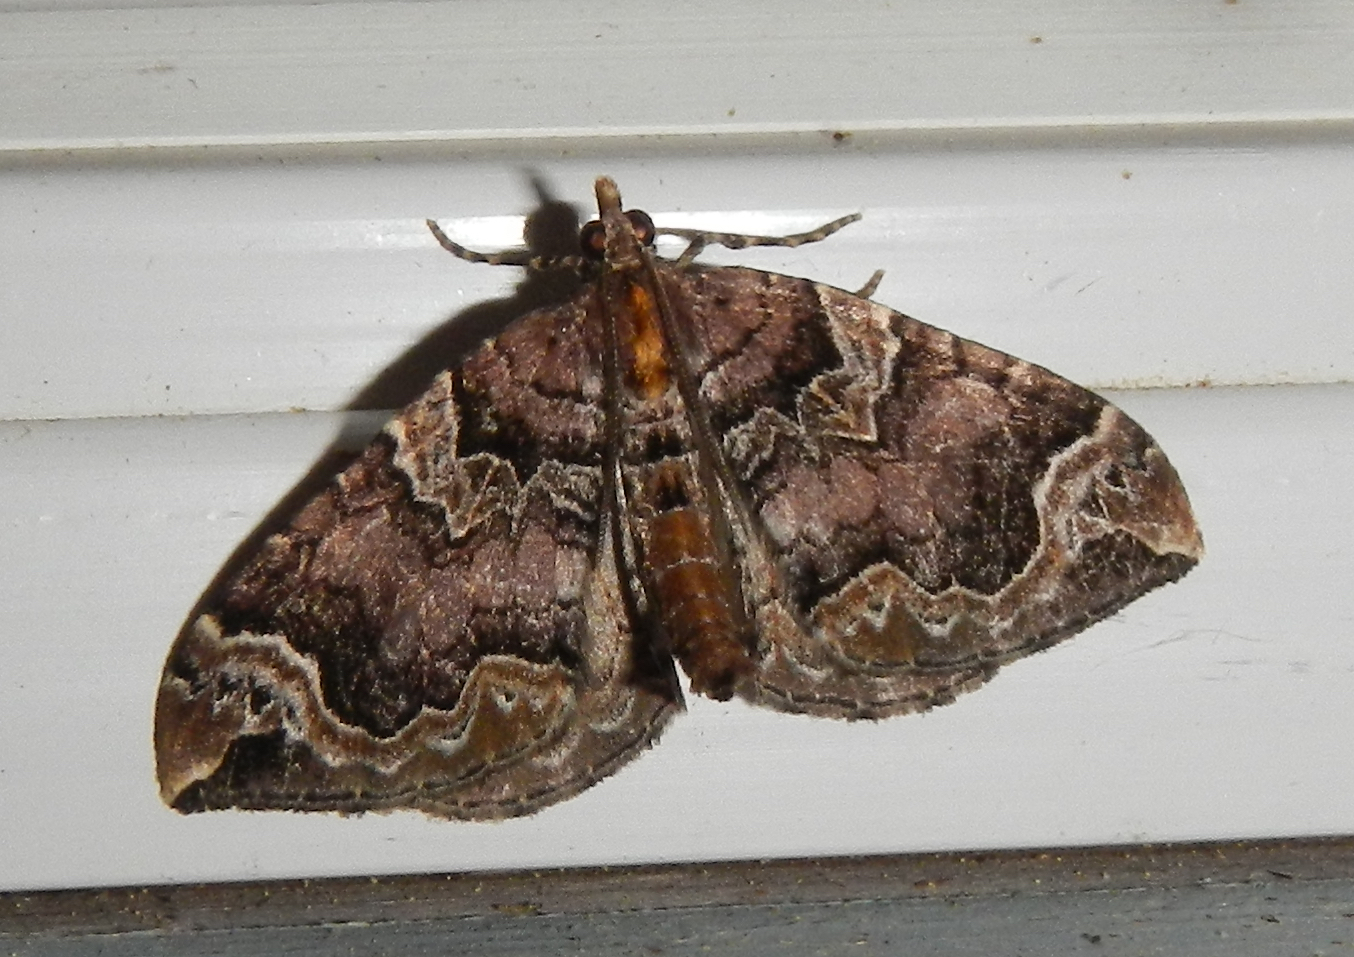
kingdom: Animalia
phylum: Arthropoda
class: Insecta
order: Lepidoptera
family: Geometridae
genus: Eulithis
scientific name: Eulithis serrataria
